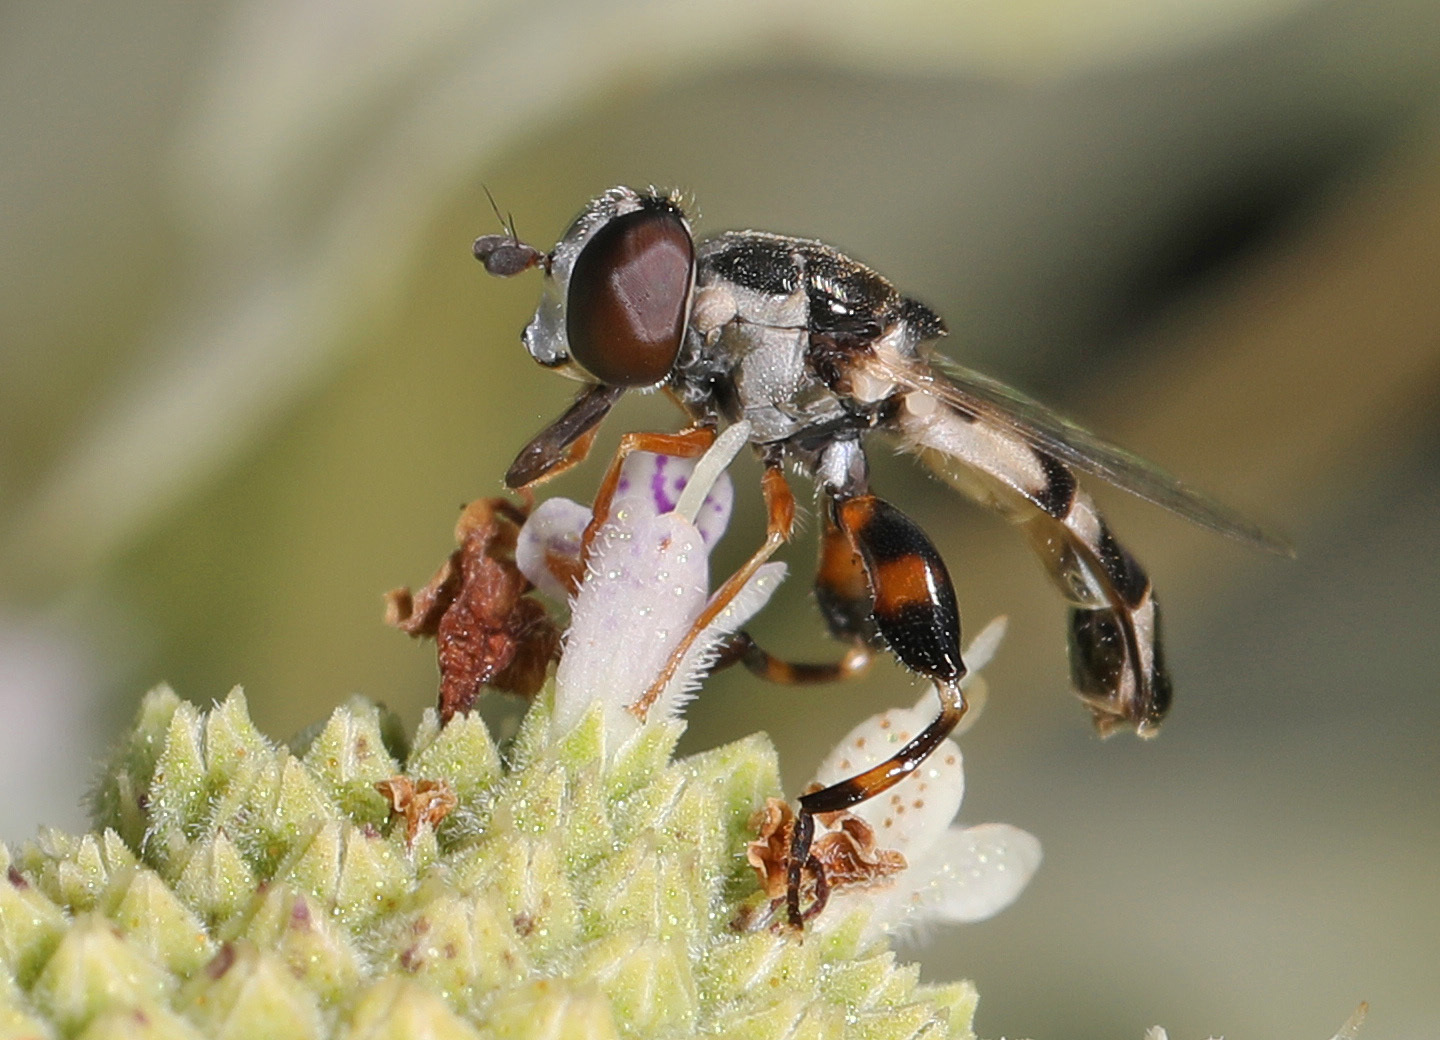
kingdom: Animalia
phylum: Arthropoda
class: Insecta
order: Diptera
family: Syrphidae
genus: Syritta
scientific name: Syritta flaviventris
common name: Syrphid fly
